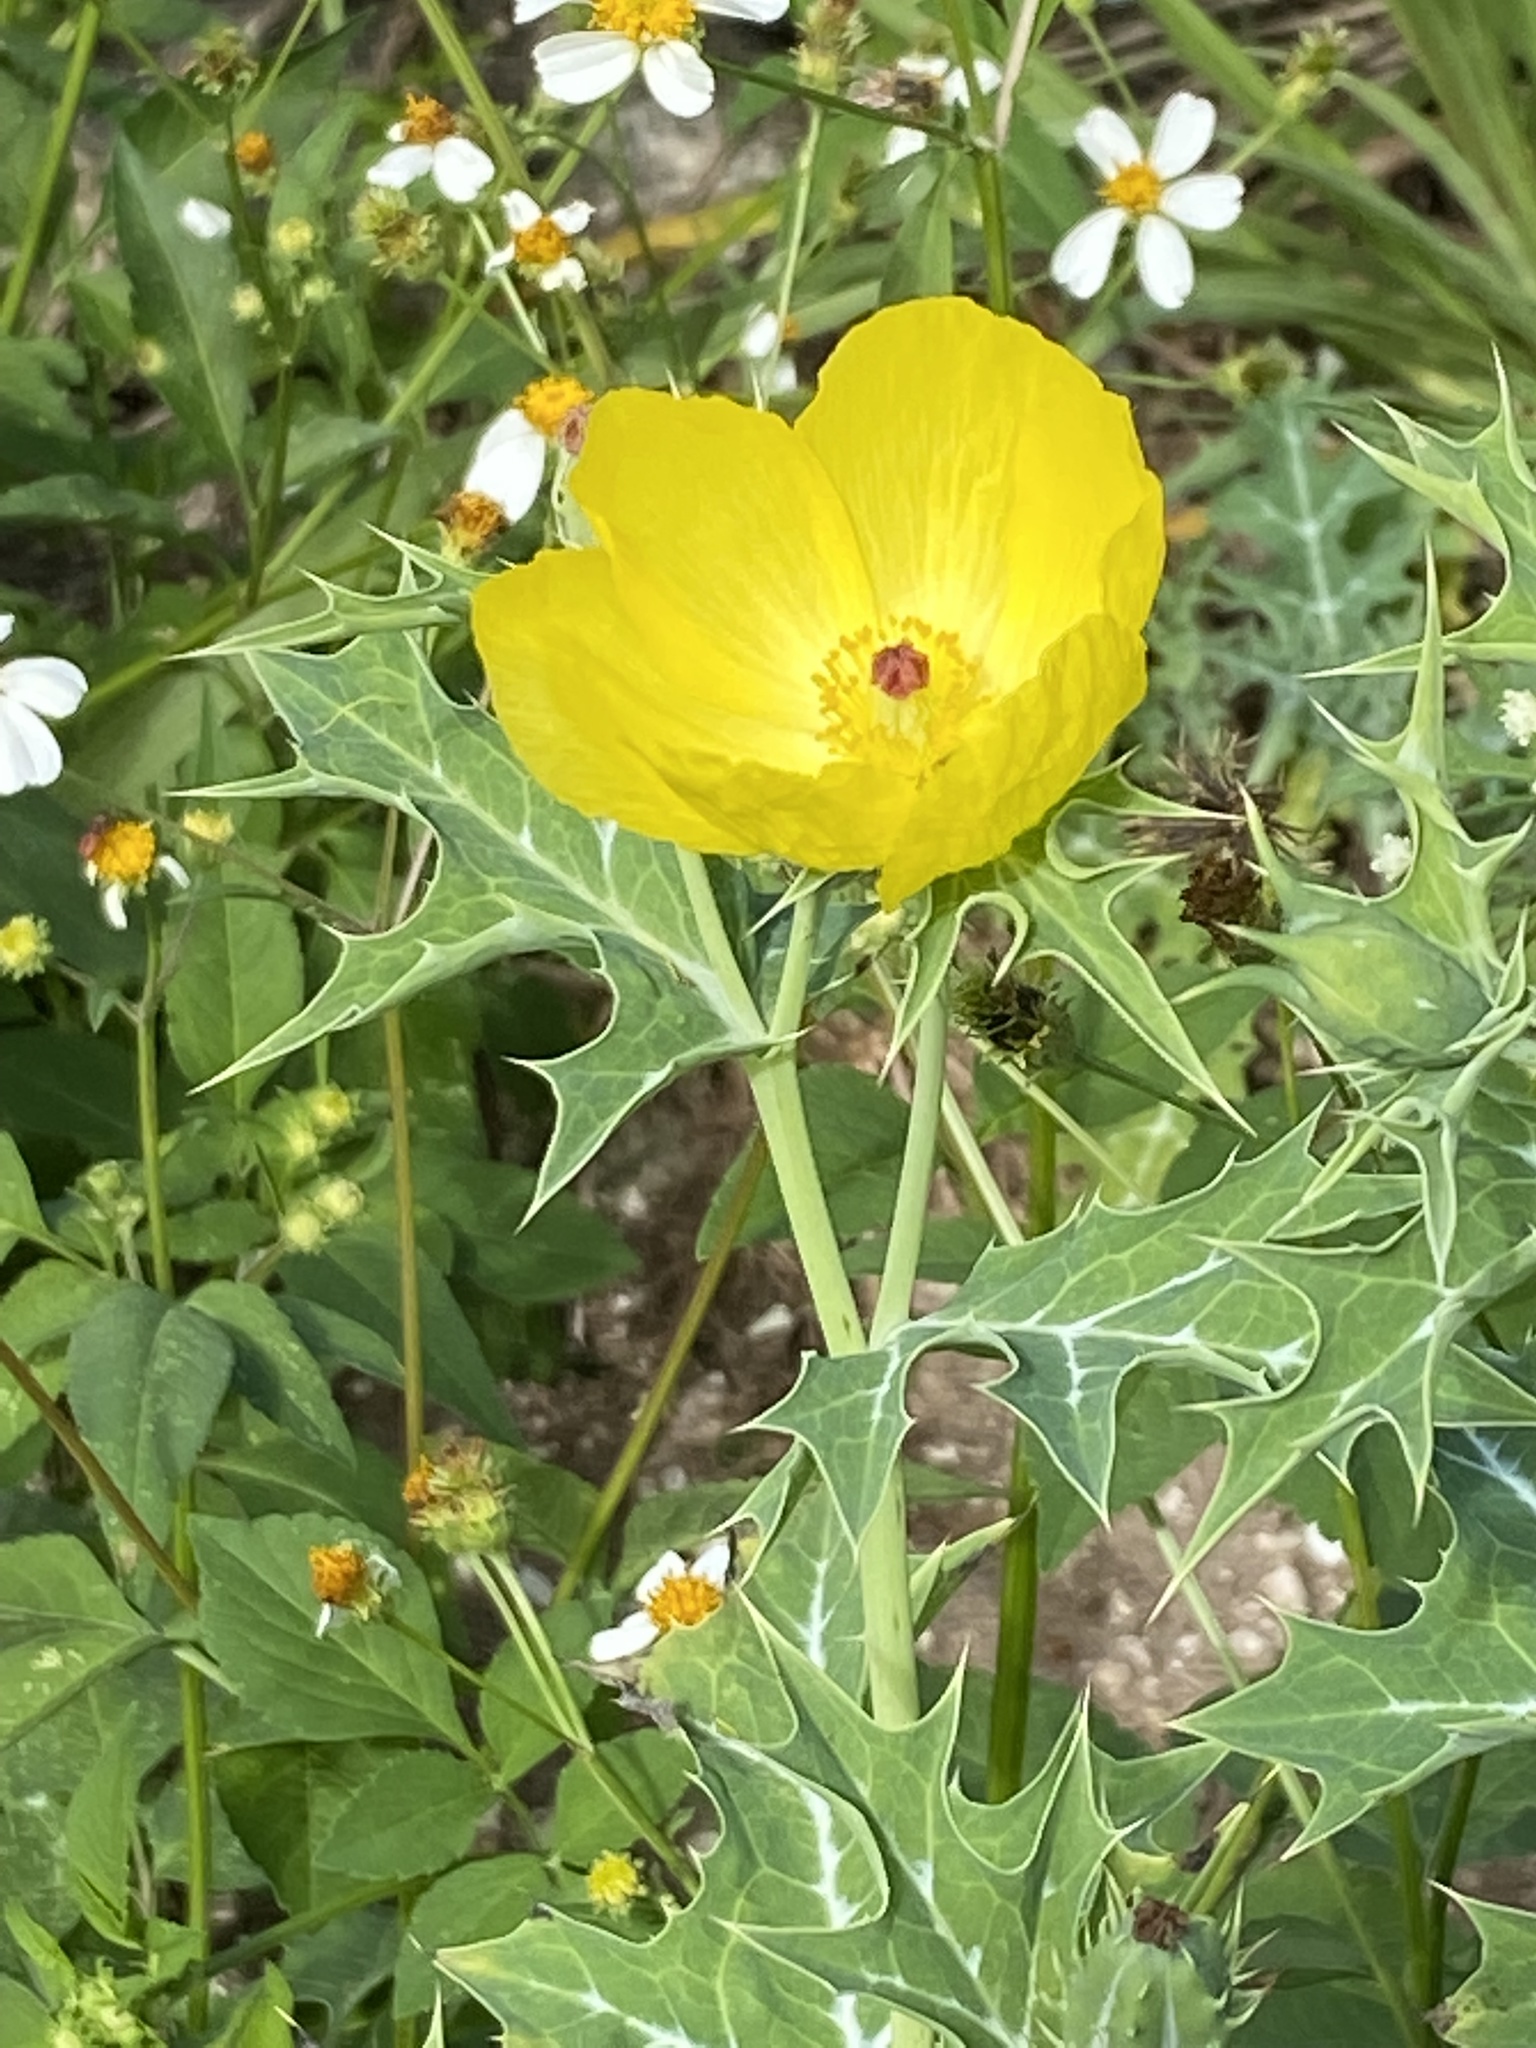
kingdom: Plantae
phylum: Tracheophyta
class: Magnoliopsida
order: Ranunculales
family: Papaveraceae
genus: Argemone
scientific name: Argemone mexicana
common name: Mexican poppy
